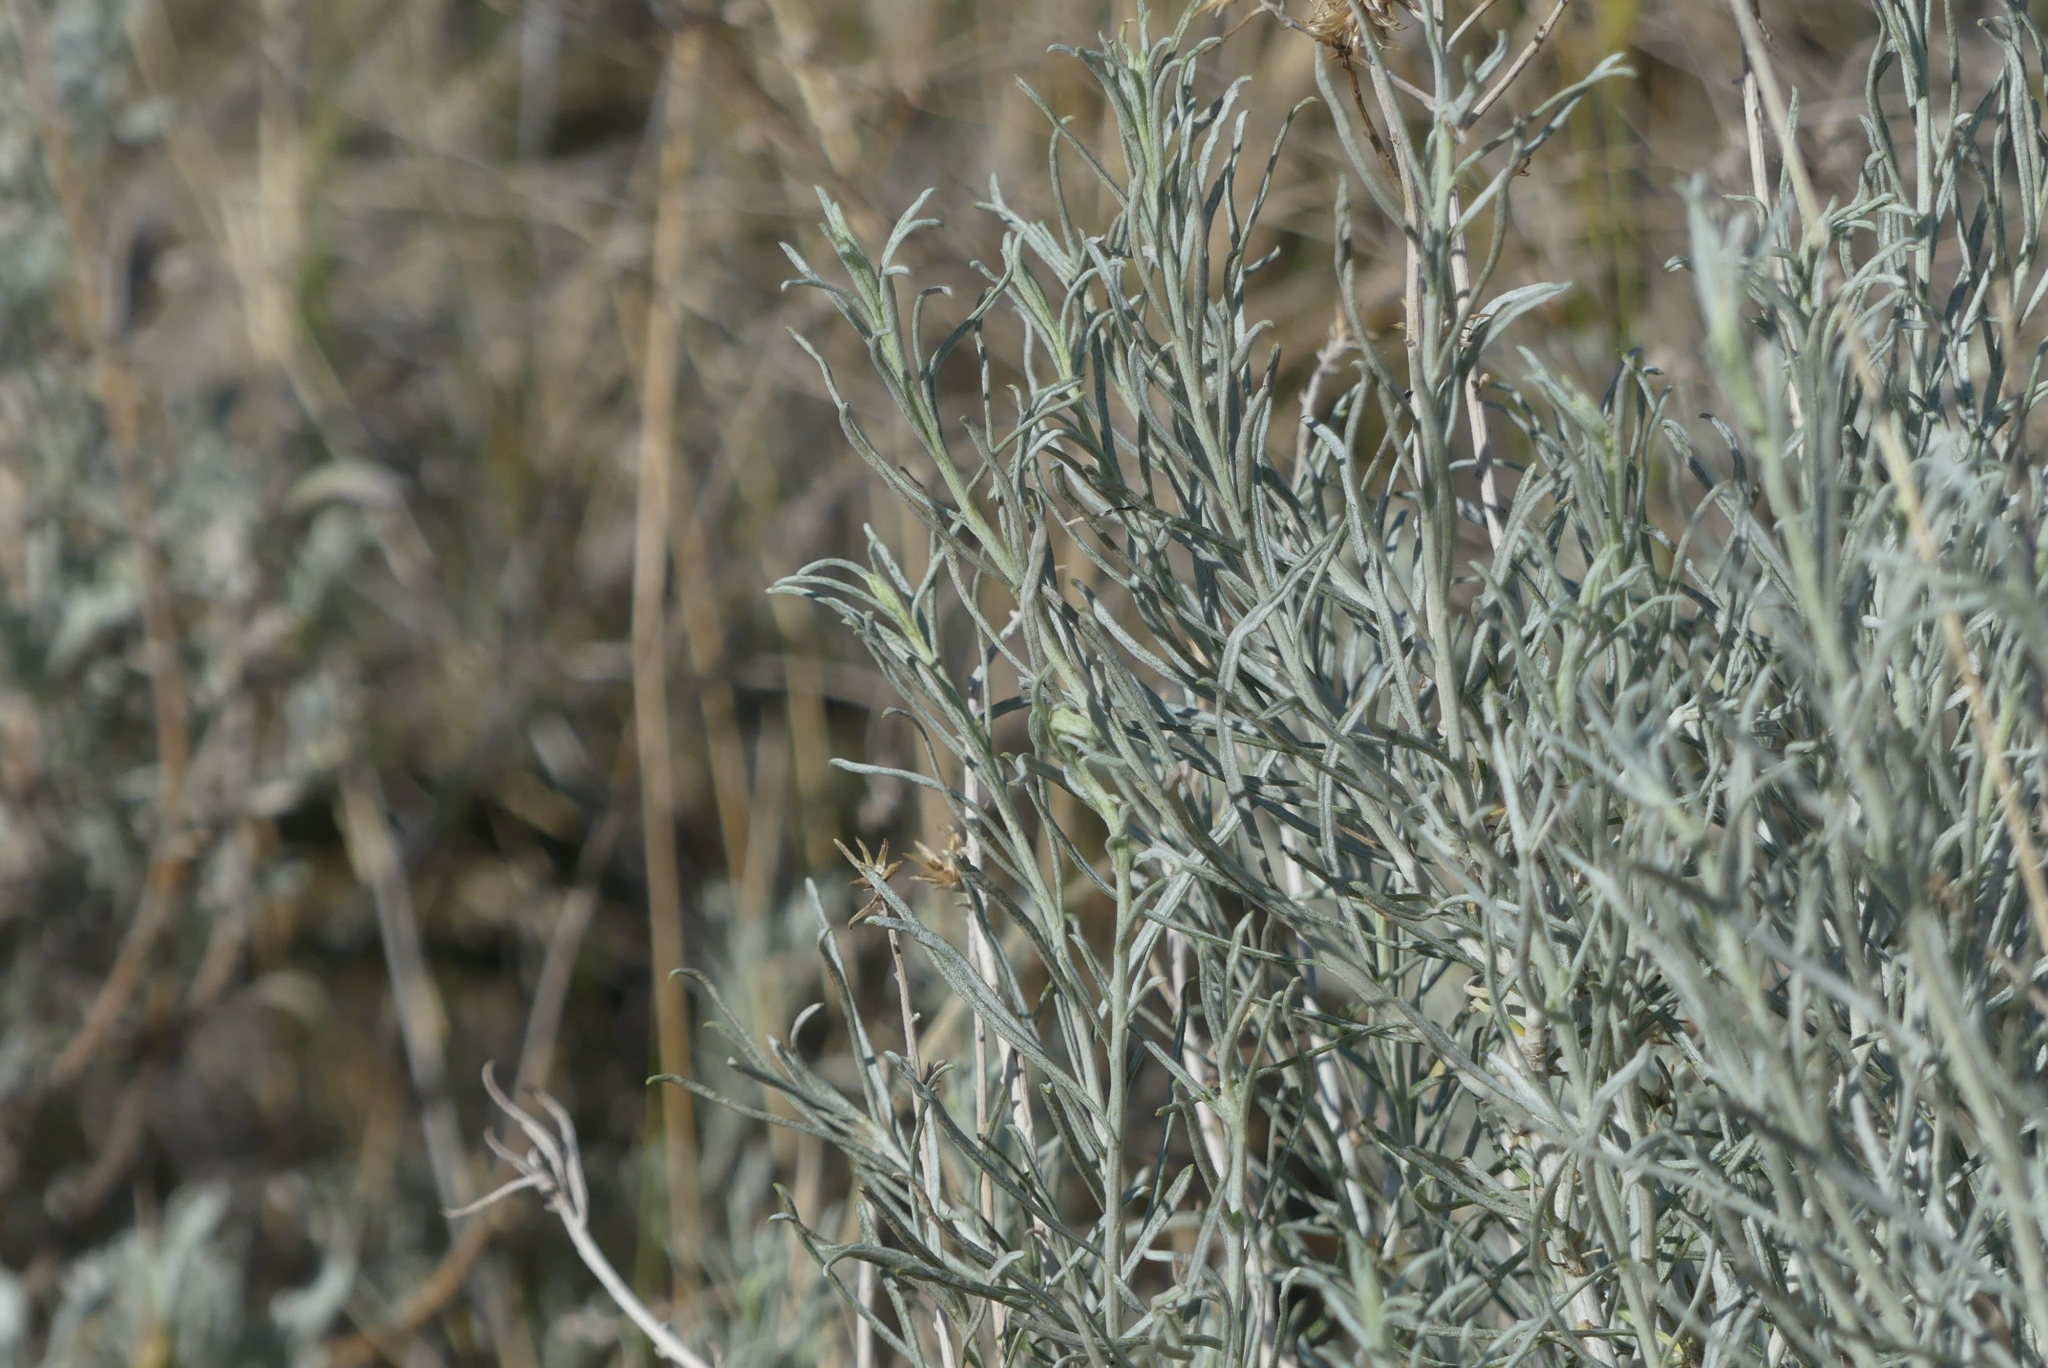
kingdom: Plantae
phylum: Tracheophyta
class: Magnoliopsida
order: Asterales
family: Asteraceae
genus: Ericameria
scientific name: Ericameria nauseosa
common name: Rubber rabbitbrush
